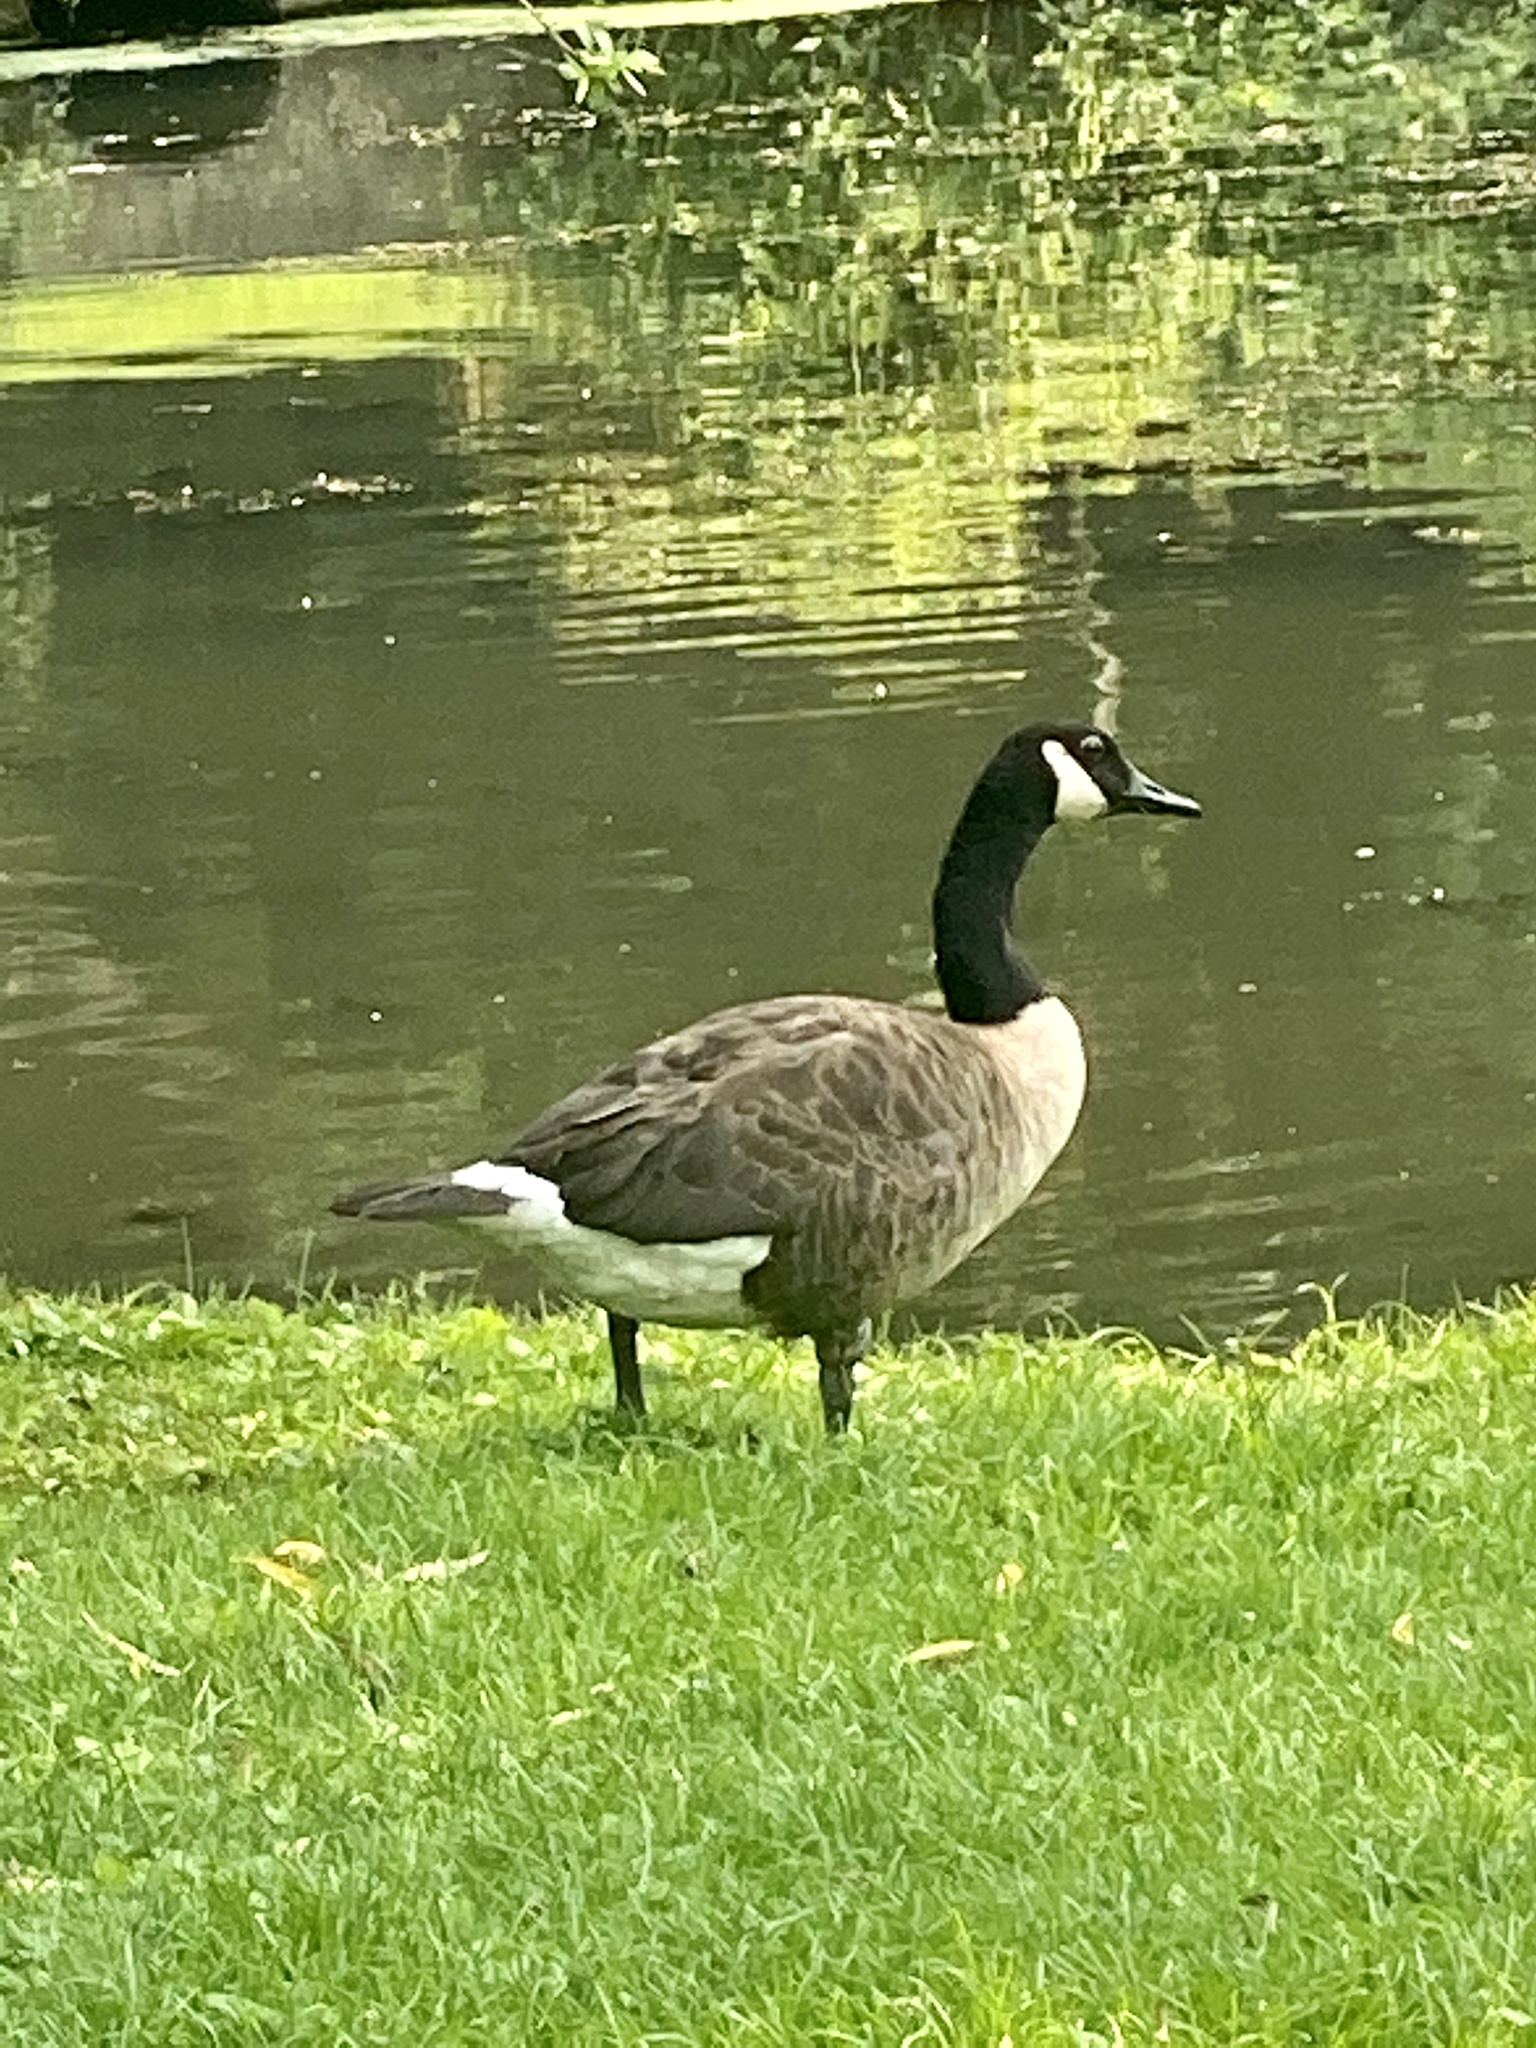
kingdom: Animalia
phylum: Chordata
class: Aves
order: Anseriformes
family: Anatidae
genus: Branta
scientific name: Branta canadensis
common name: Canada goose
